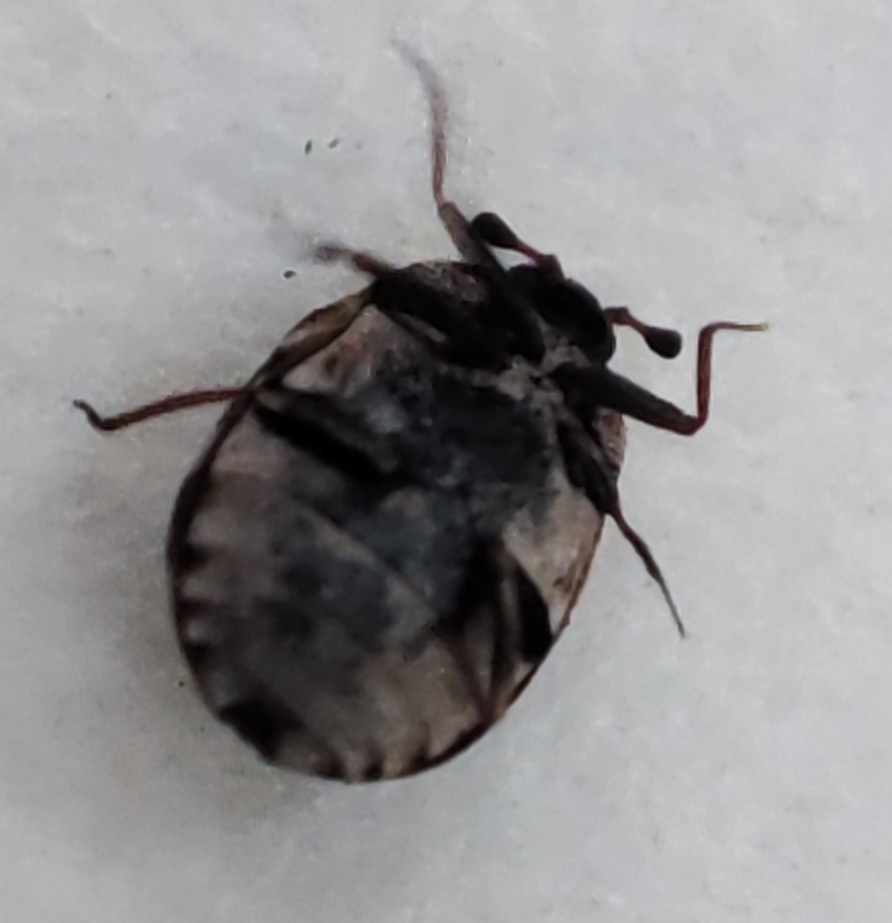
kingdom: Animalia
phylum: Arthropoda
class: Insecta
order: Coleoptera
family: Dermestidae
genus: Anthrenus
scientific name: Anthrenus picturatus
